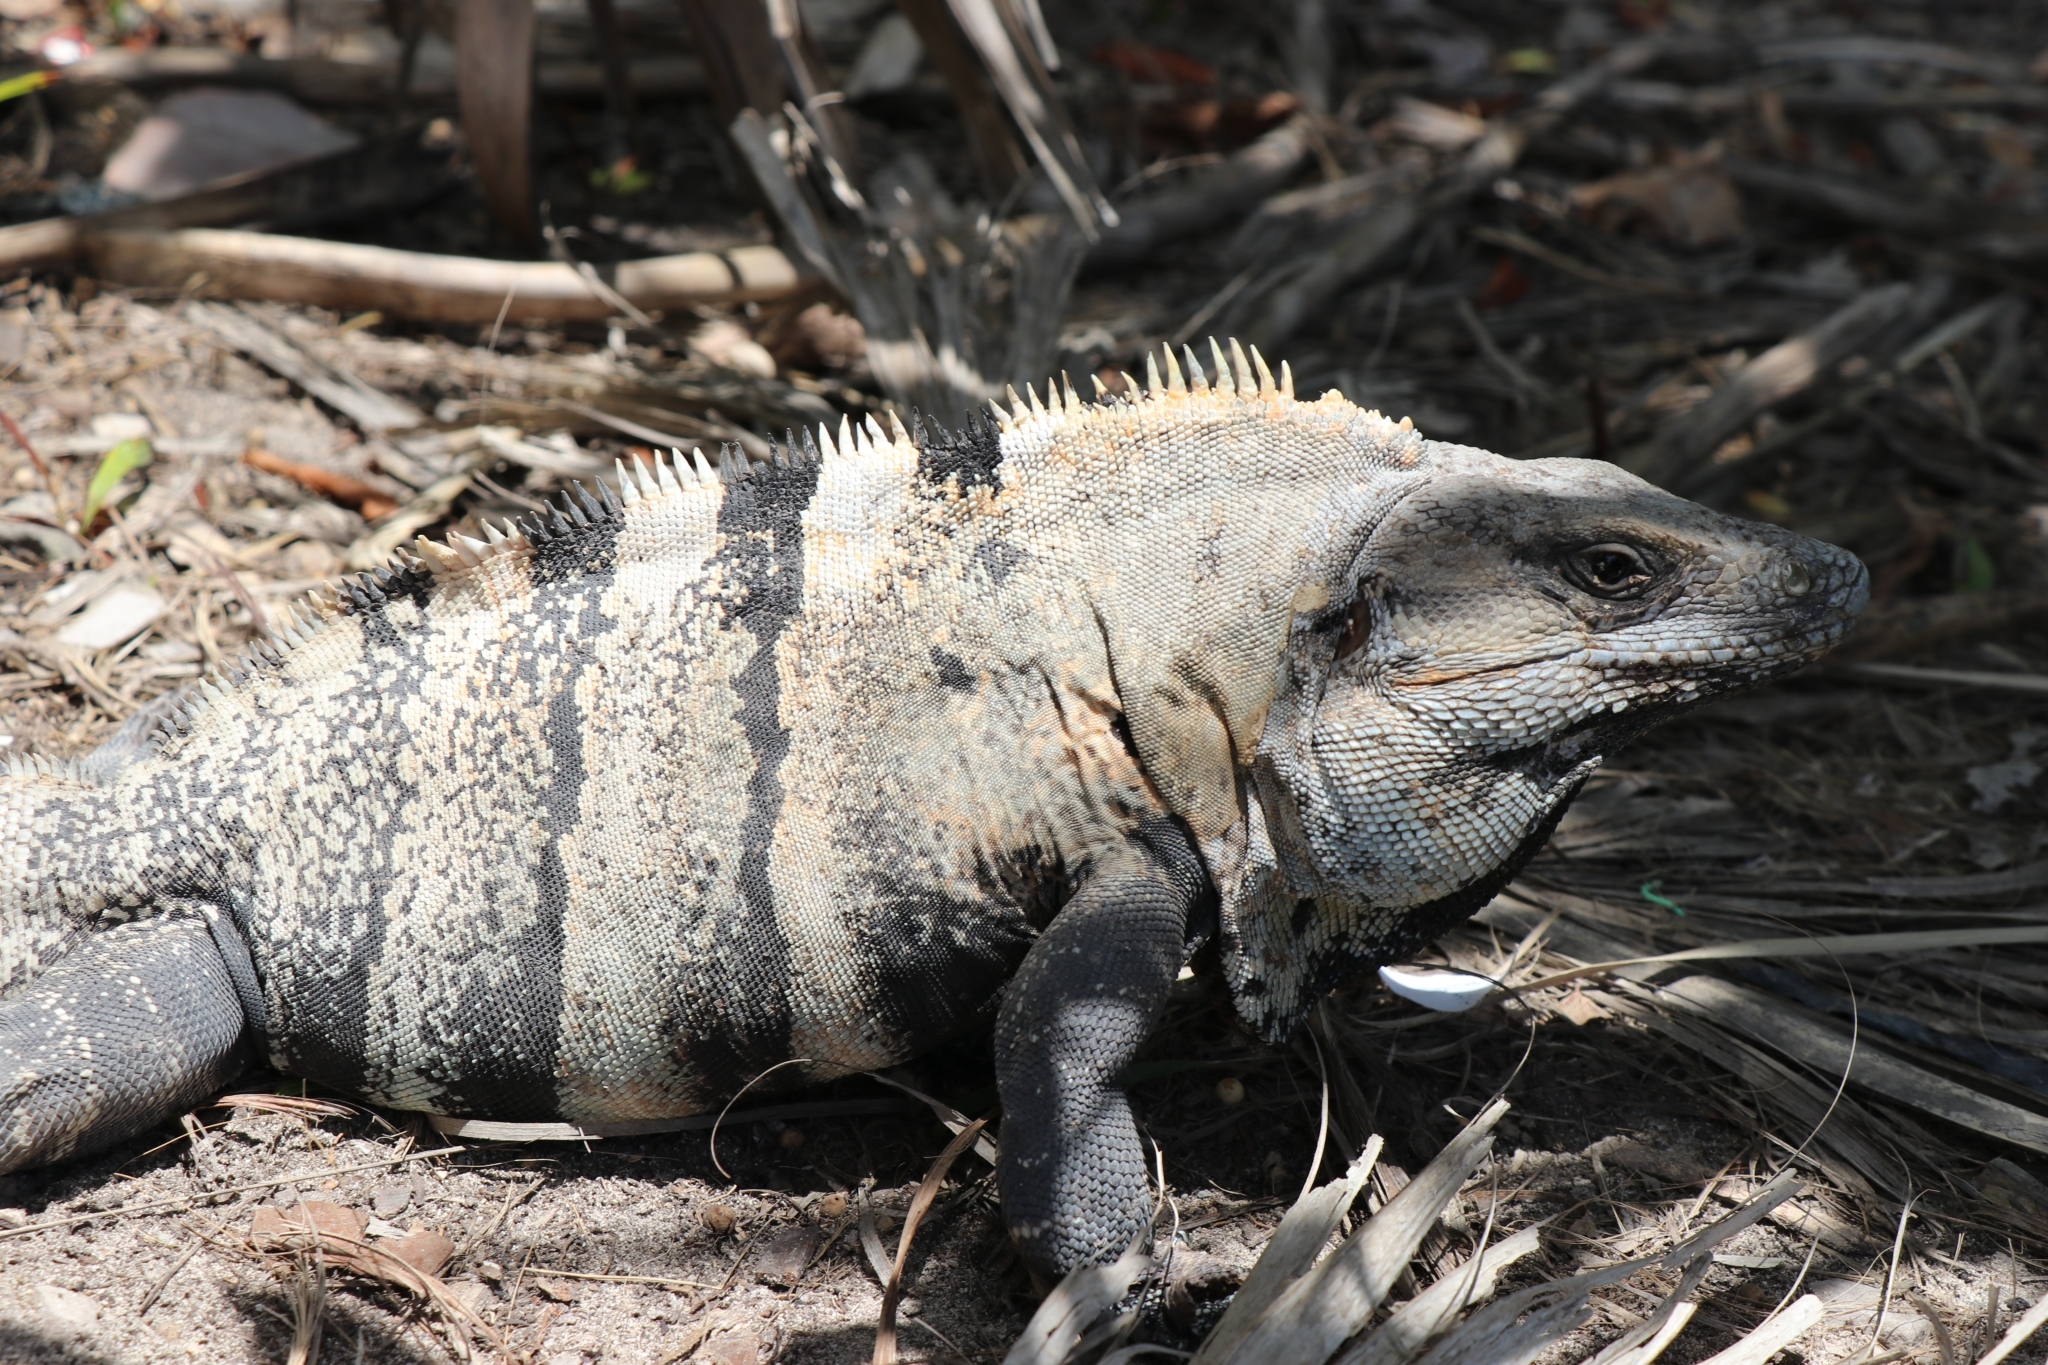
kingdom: Animalia
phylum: Chordata
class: Squamata
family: Iguanidae
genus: Ctenosaura
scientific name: Ctenosaura similis
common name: Black spiny-tailed iguana
